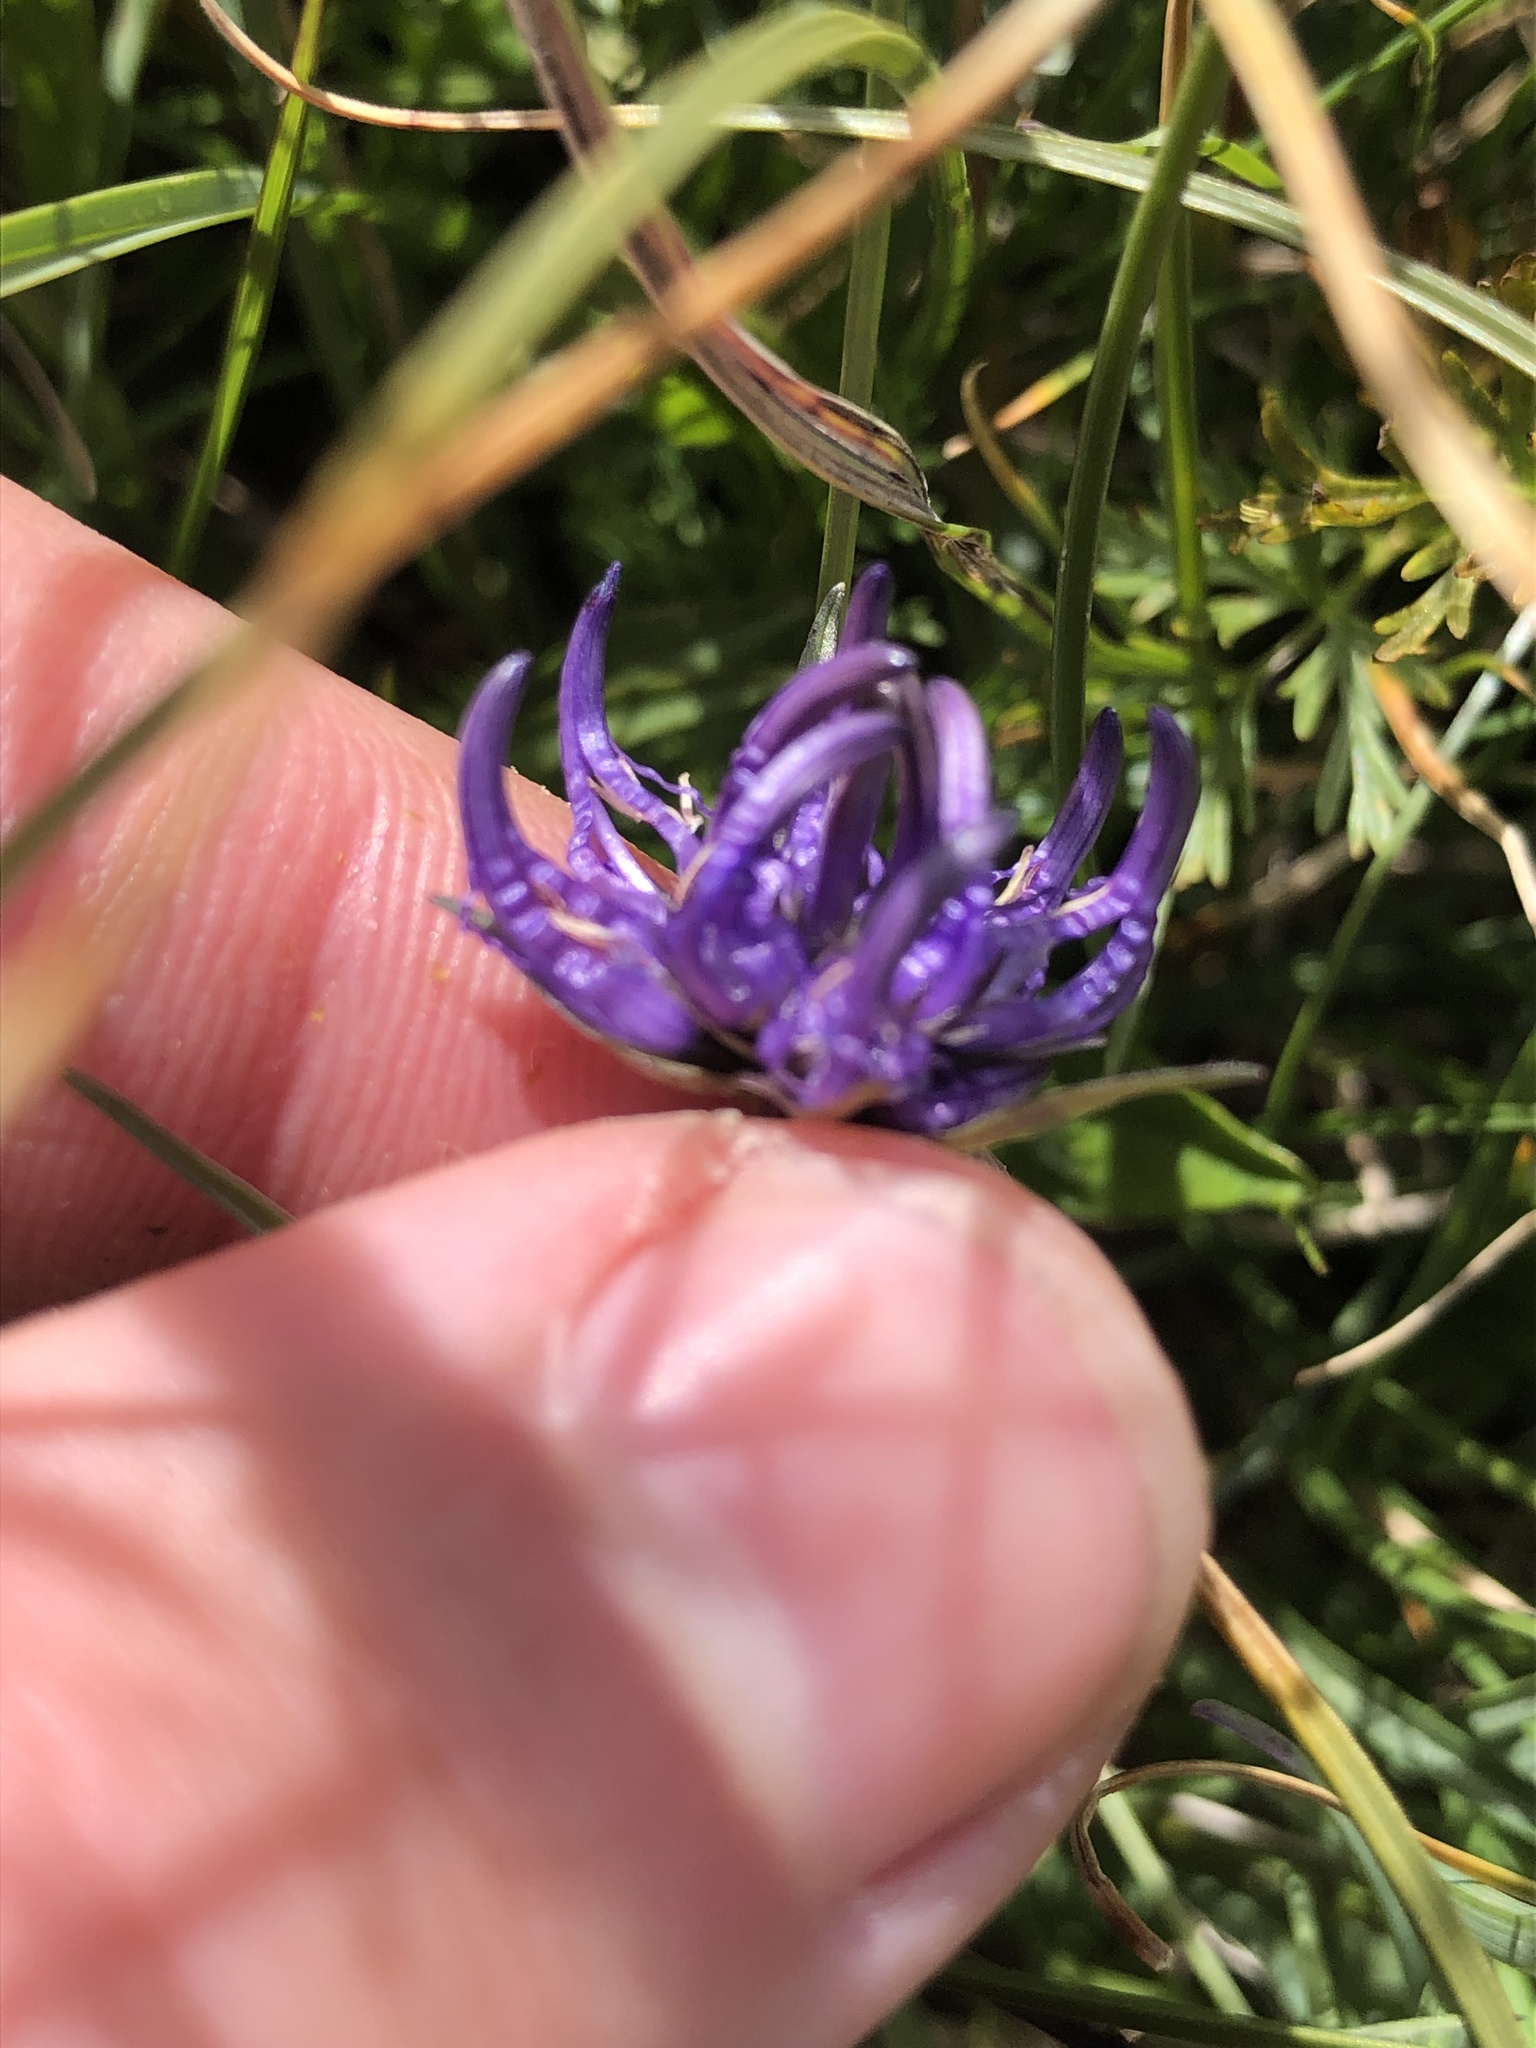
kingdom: Plantae
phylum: Tracheophyta
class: Magnoliopsida
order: Asterales
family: Campanulaceae
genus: Phyteuma
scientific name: Phyteuma hemisphaericum
